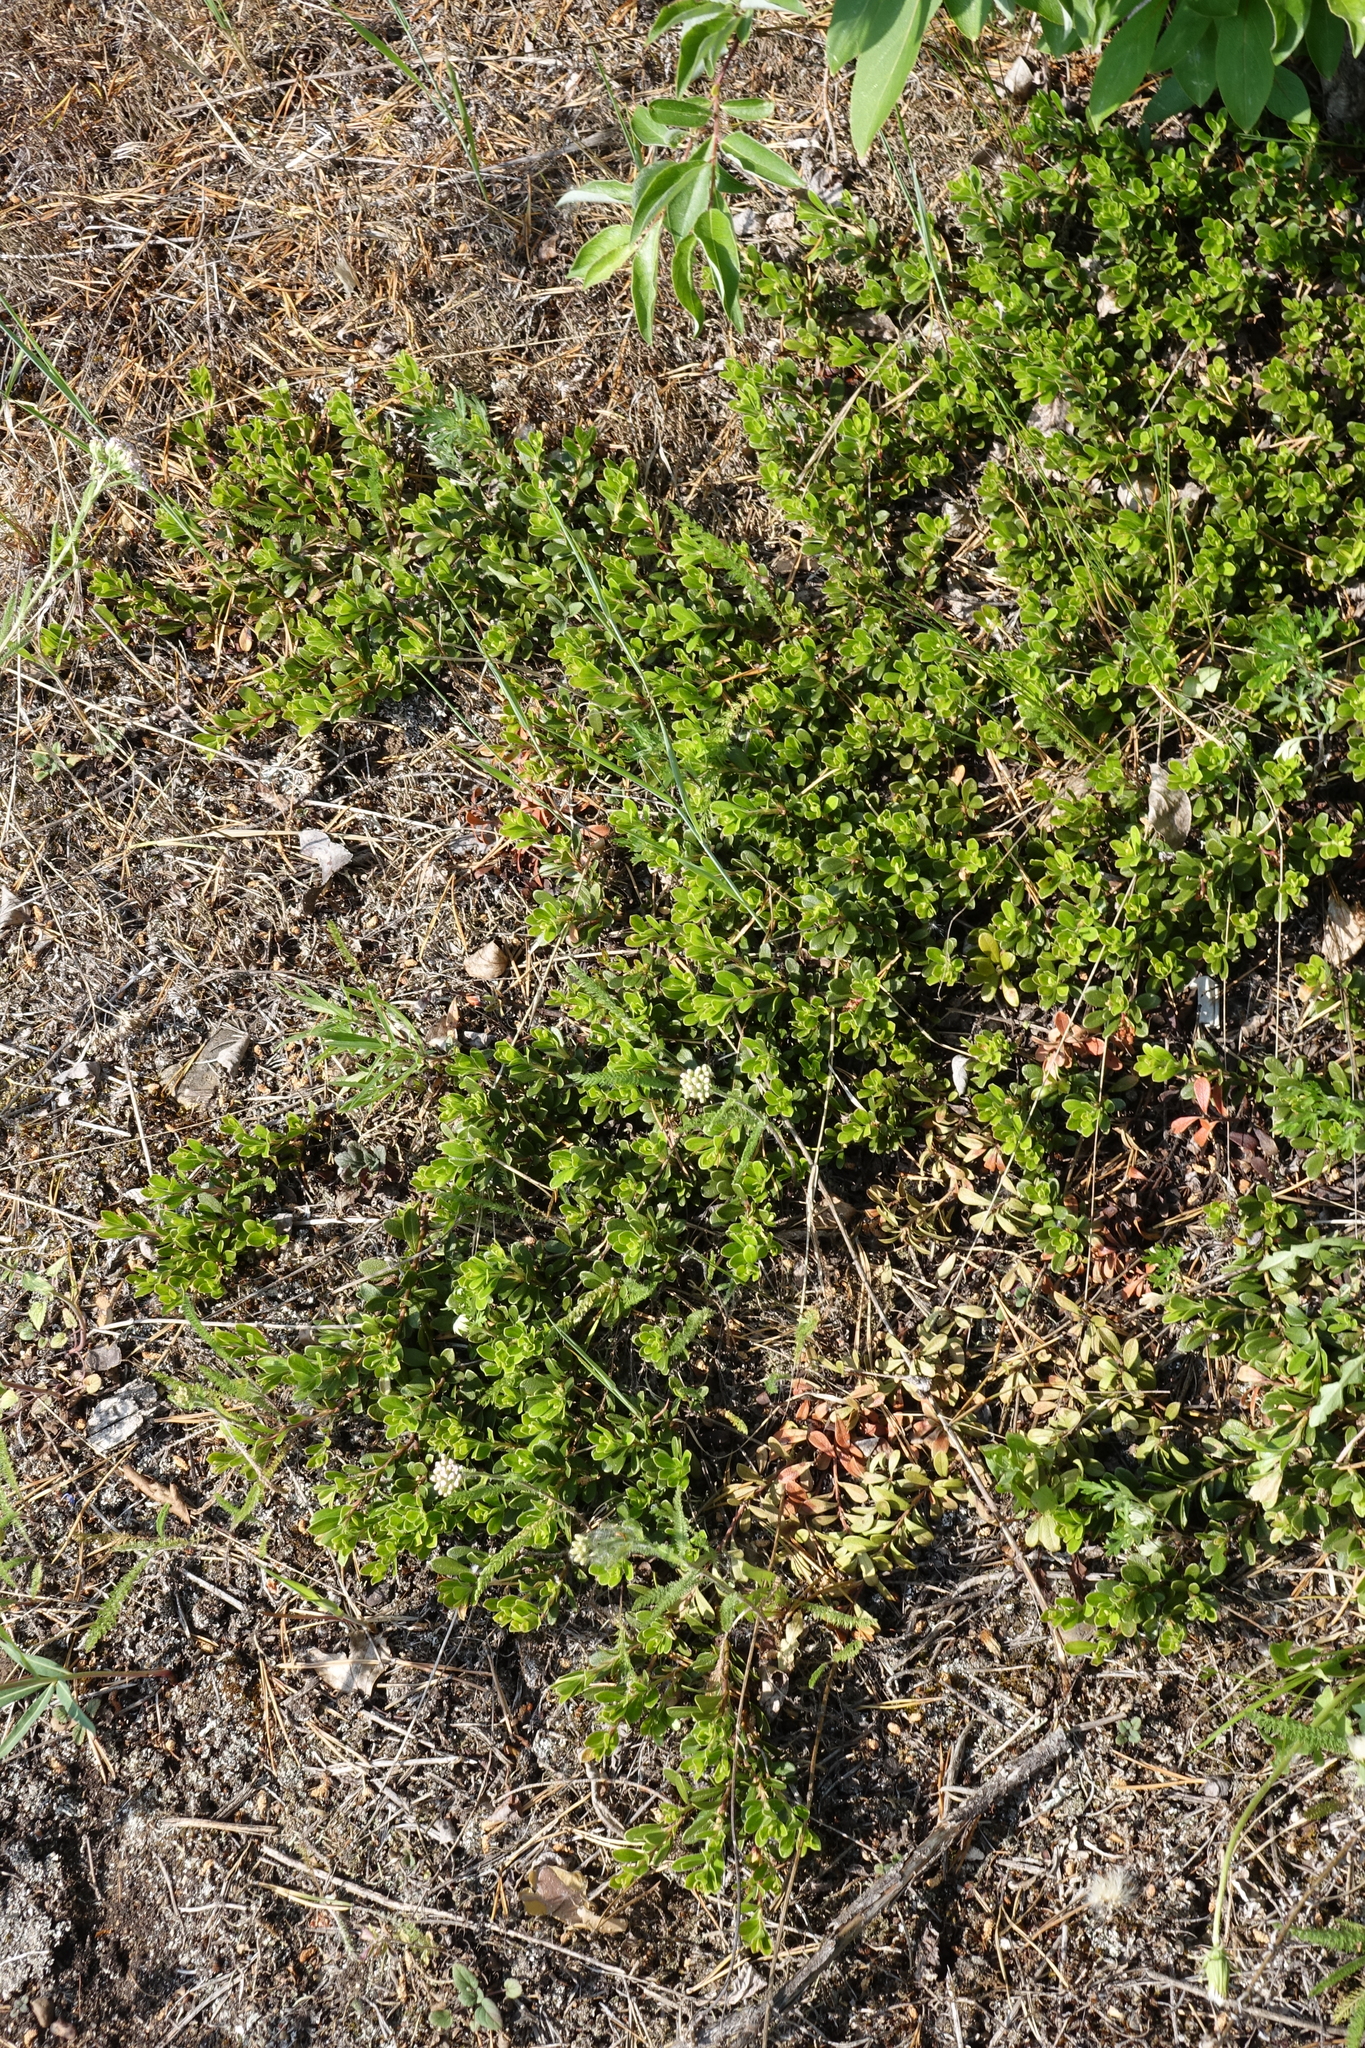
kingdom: Plantae
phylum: Tracheophyta
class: Magnoliopsida
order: Ericales
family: Ericaceae
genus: Arctostaphylos
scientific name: Arctostaphylos uva-ursi
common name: Bearberry
